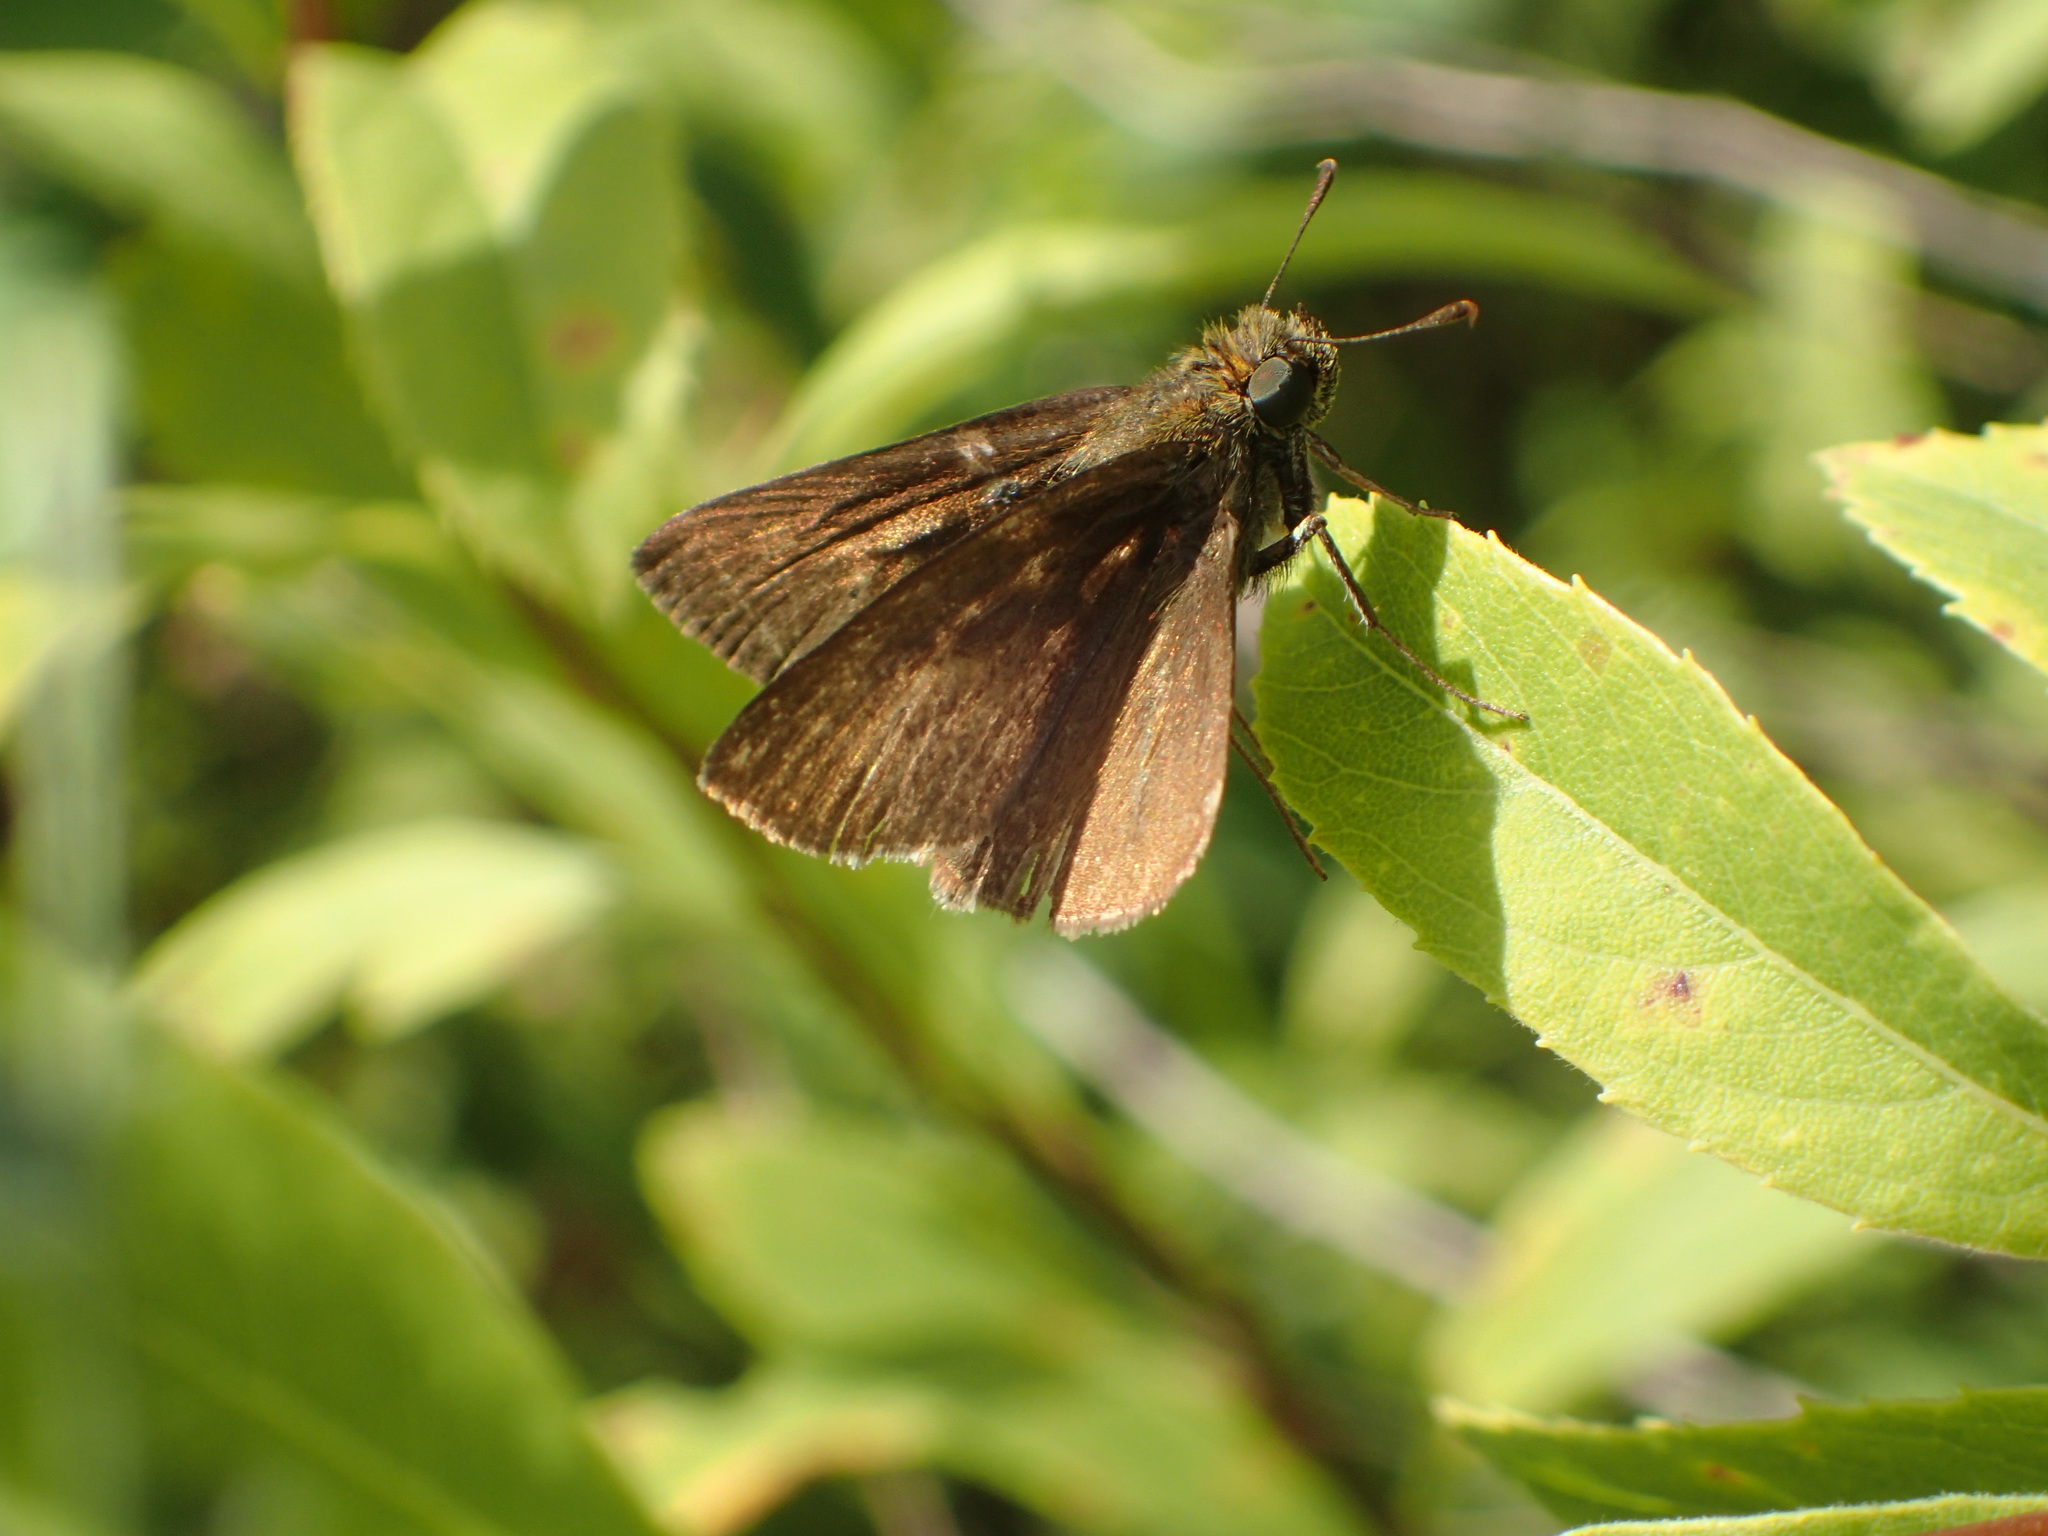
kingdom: Animalia
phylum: Arthropoda
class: Insecta
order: Lepidoptera
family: Hesperiidae
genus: Euphyes
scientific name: Euphyes vestris
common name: Dun skipper
